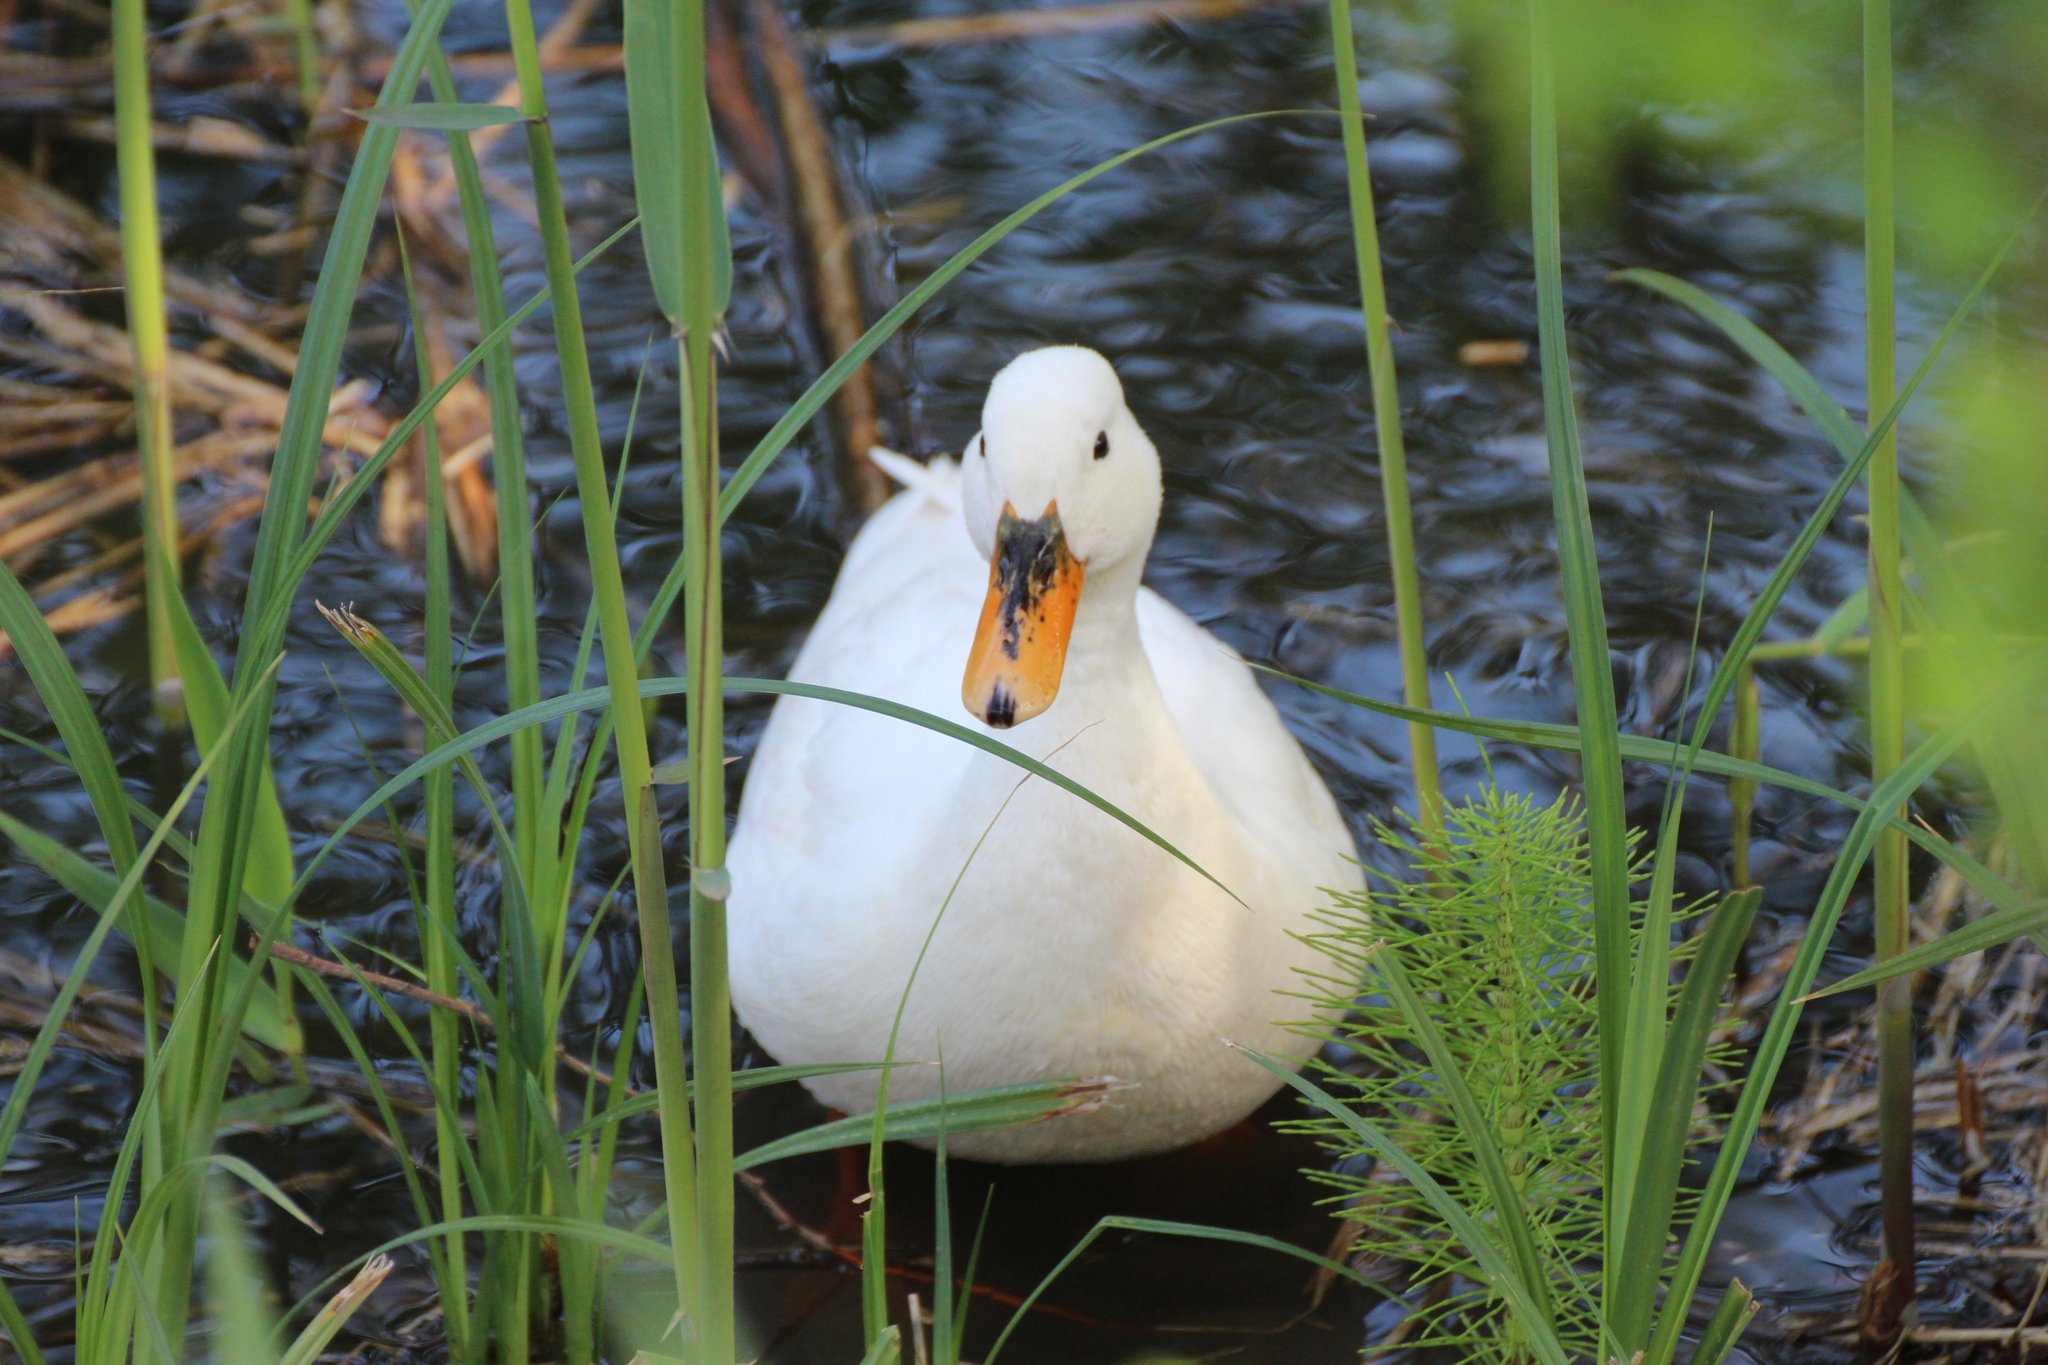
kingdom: Animalia
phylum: Chordata
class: Aves
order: Anseriformes
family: Anatidae
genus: Anas
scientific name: Anas platyrhynchos
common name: Mallard
